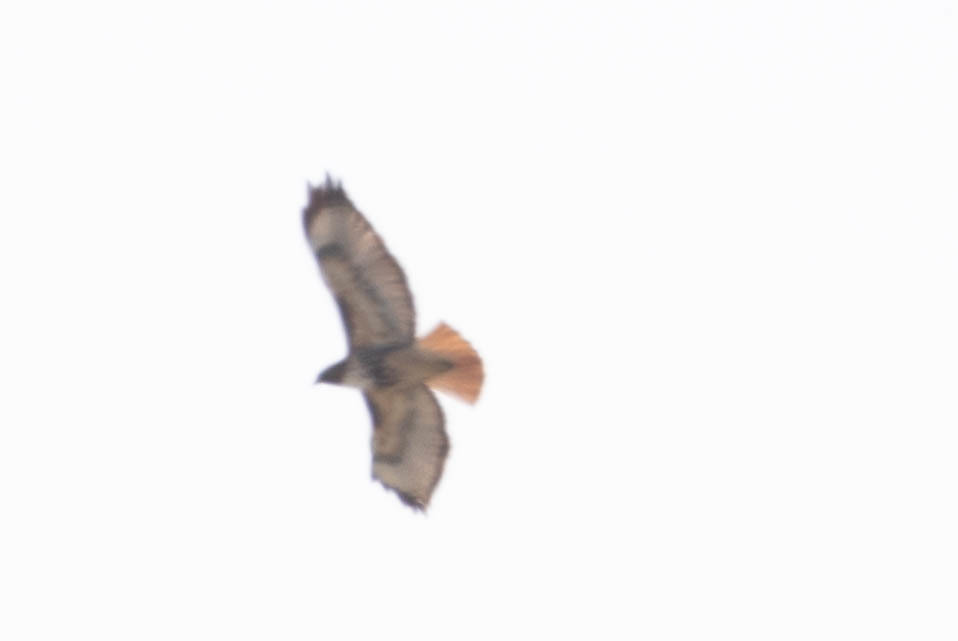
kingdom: Animalia
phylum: Chordata
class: Aves
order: Accipitriformes
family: Accipitridae
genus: Buteo
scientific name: Buteo jamaicensis
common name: Red-tailed hawk
